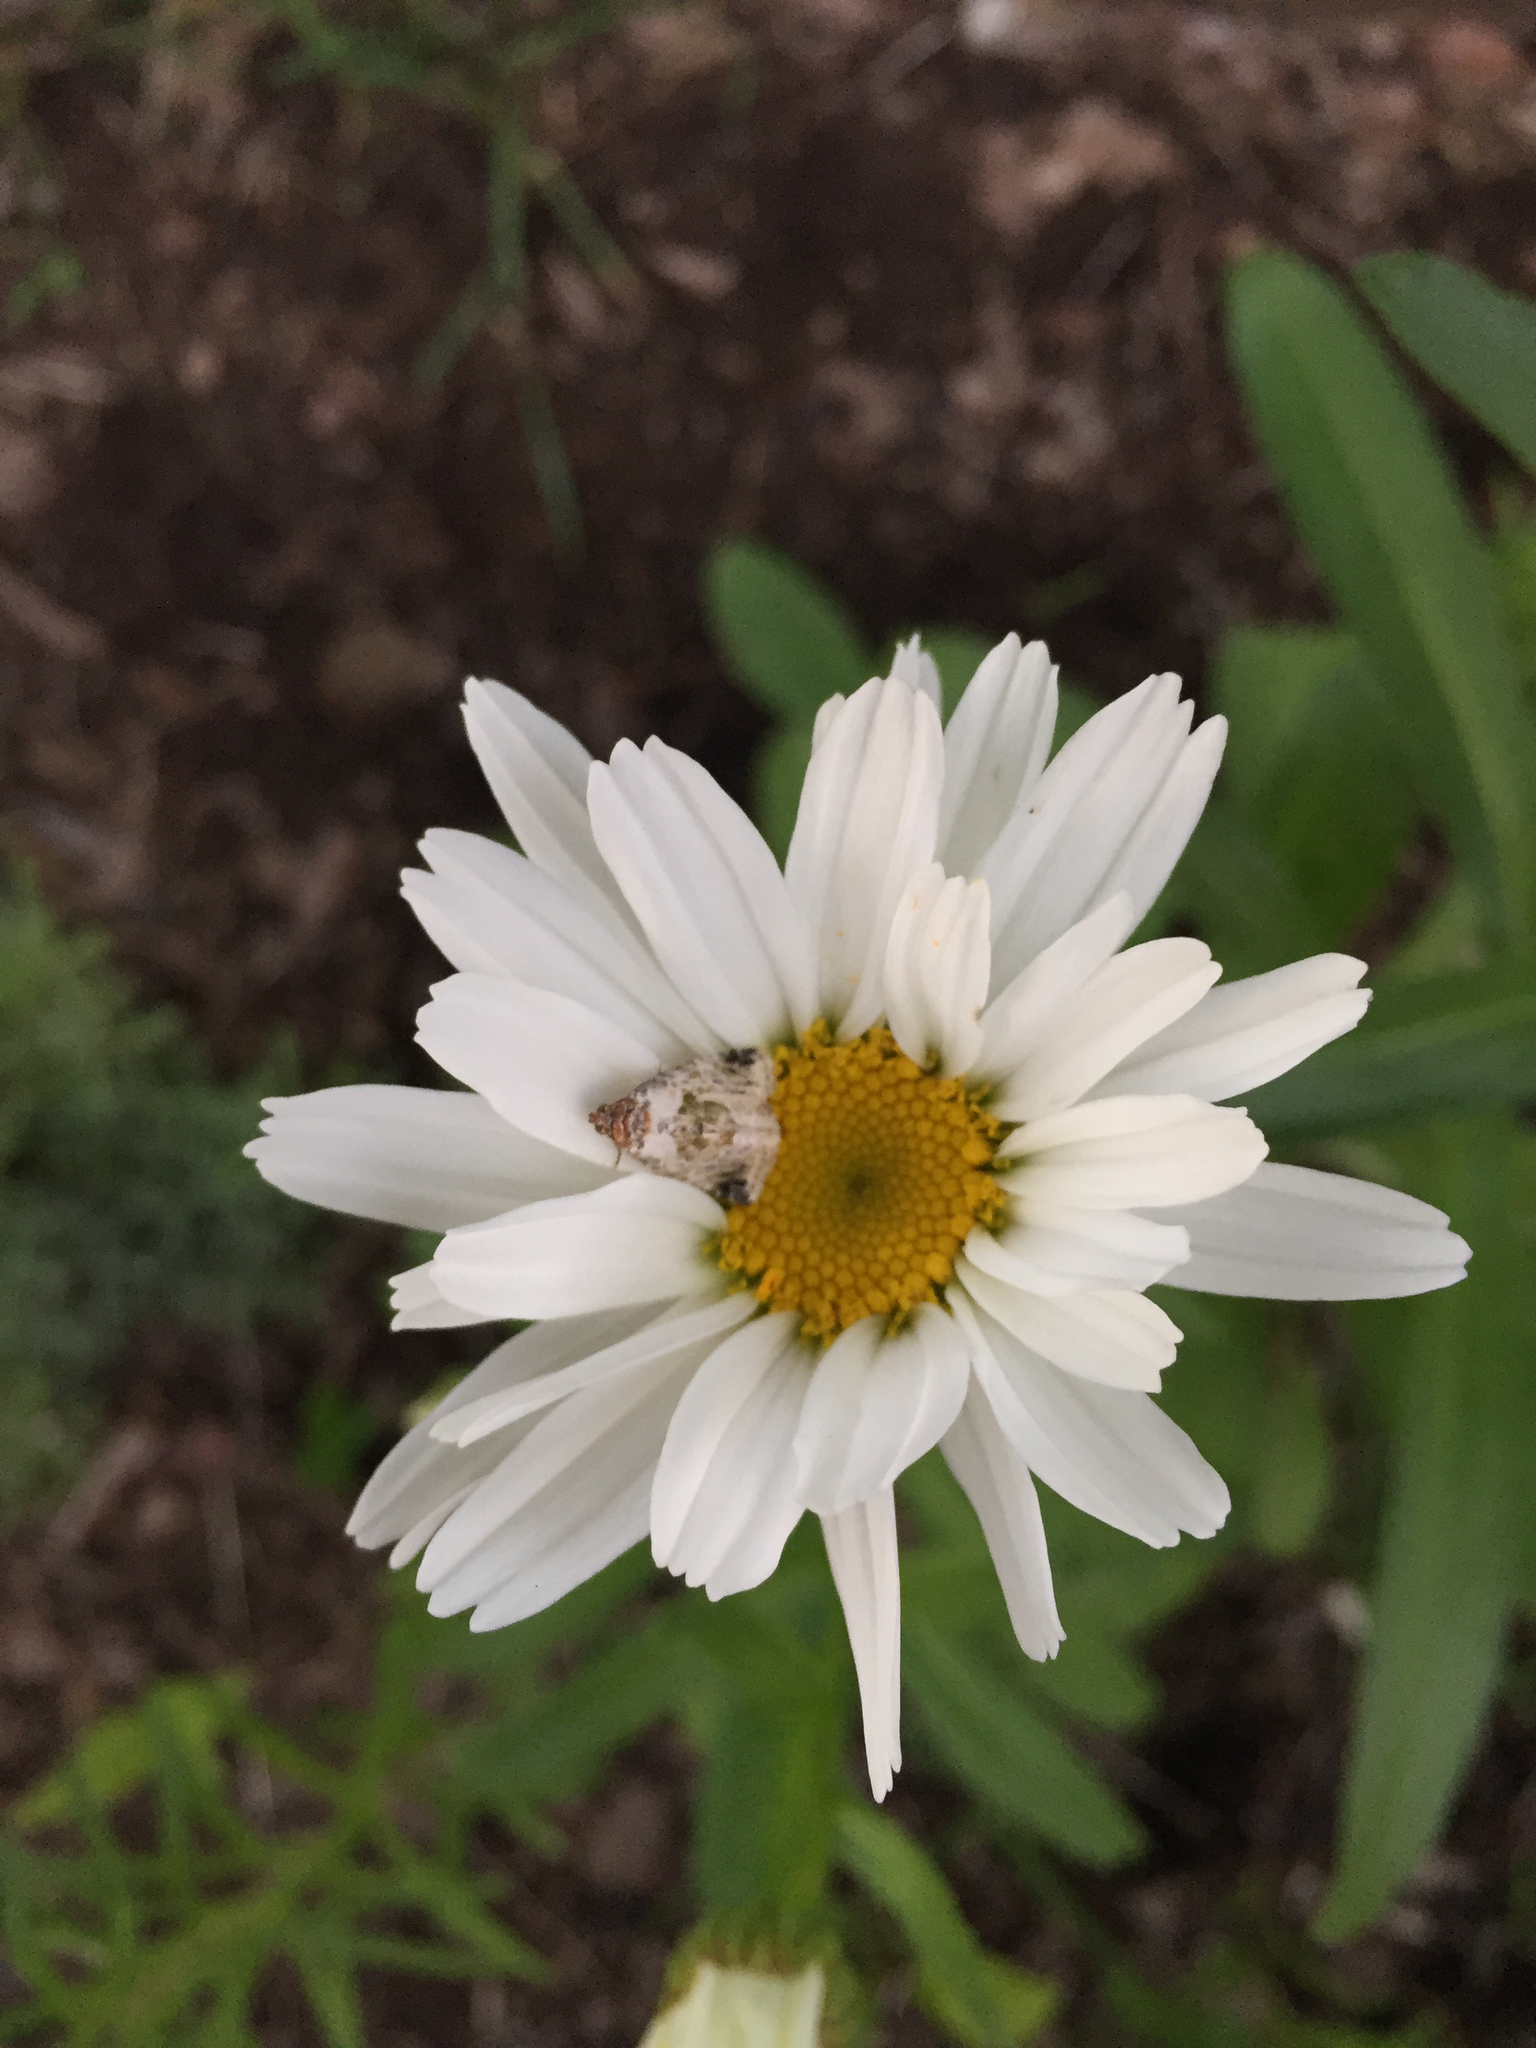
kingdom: Animalia
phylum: Arthropoda
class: Insecta
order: Lepidoptera
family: Noctuidae
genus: Maliattha
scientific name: Maliattha synochitis
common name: Black-dotted glyph
